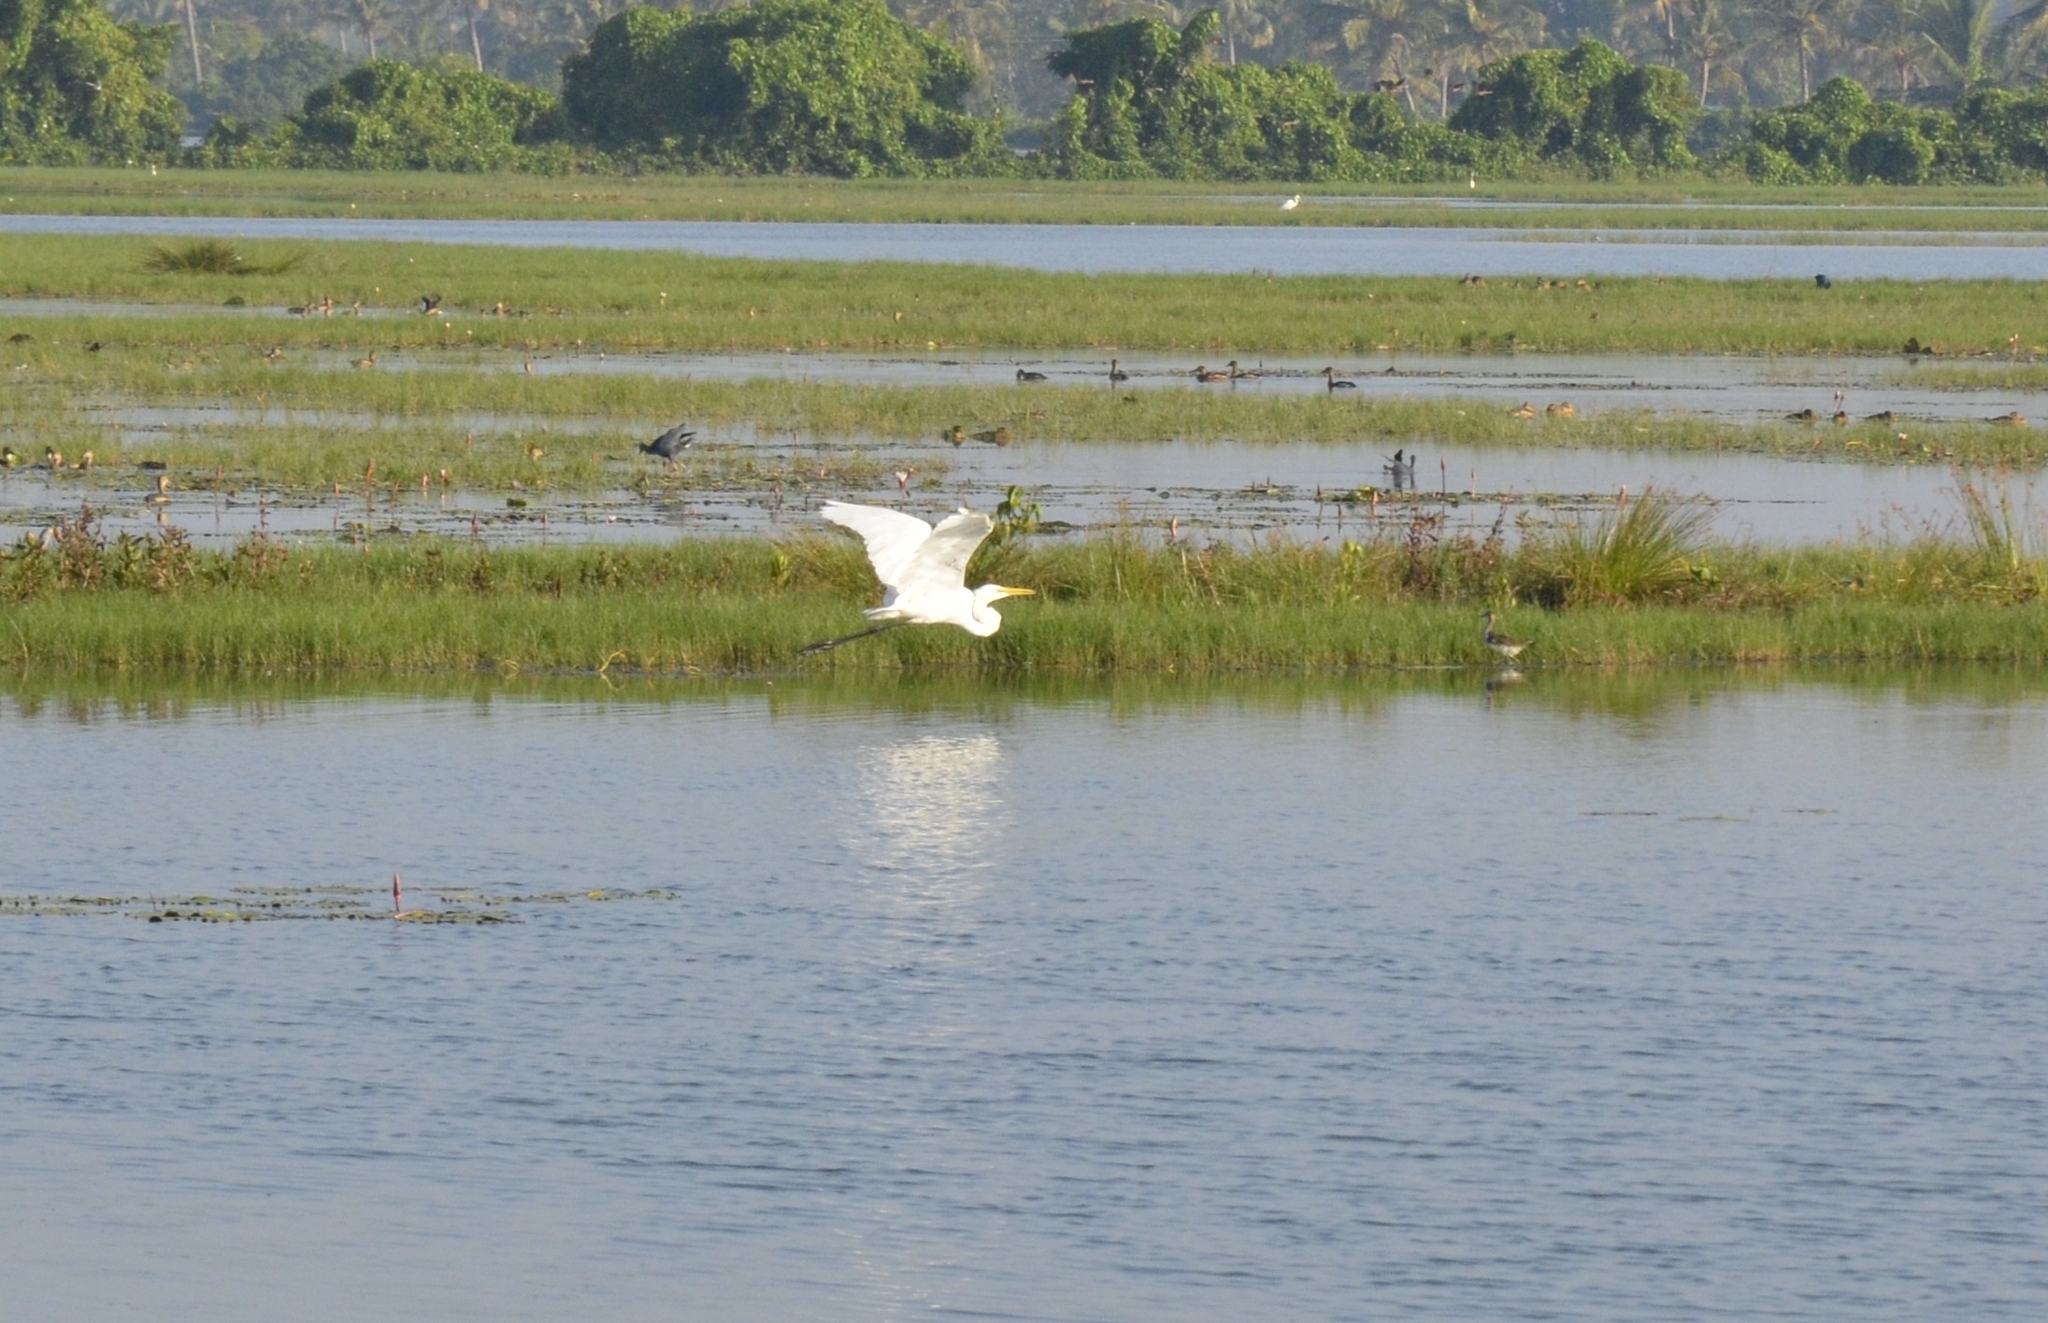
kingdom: Animalia
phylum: Chordata
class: Aves
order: Pelecaniformes
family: Ardeidae
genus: Ardea
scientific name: Ardea alba
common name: Great egret
